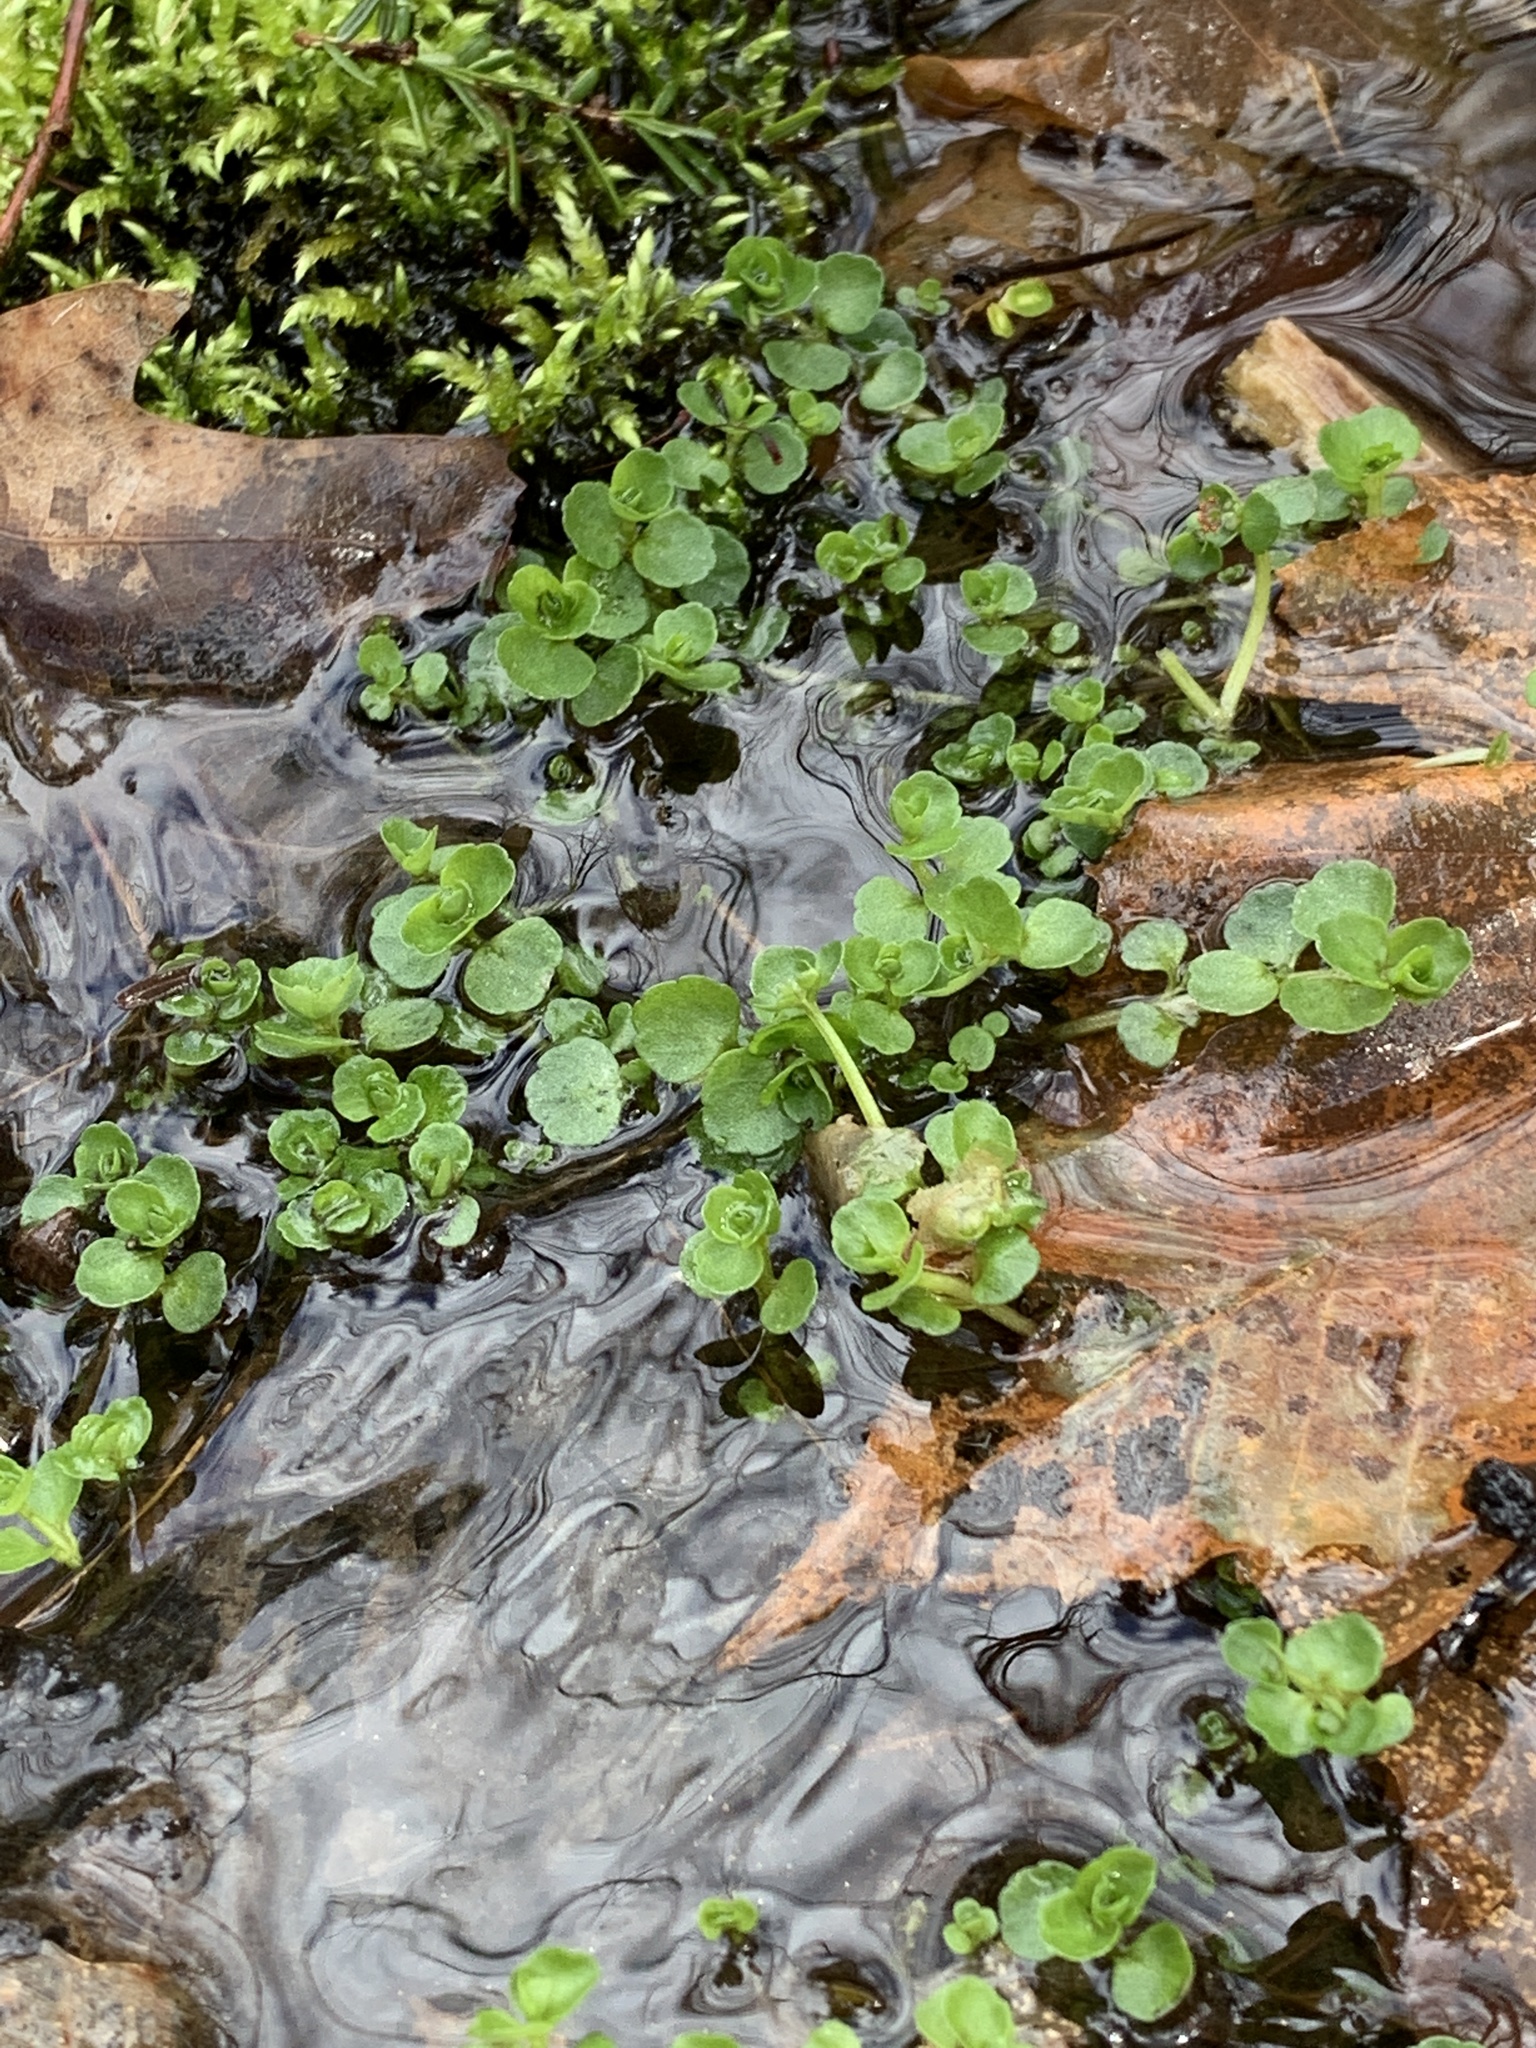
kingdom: Plantae
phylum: Tracheophyta
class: Magnoliopsida
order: Saxifragales
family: Saxifragaceae
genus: Chrysosplenium
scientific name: Chrysosplenium americanum
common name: American golden-saxifrage
